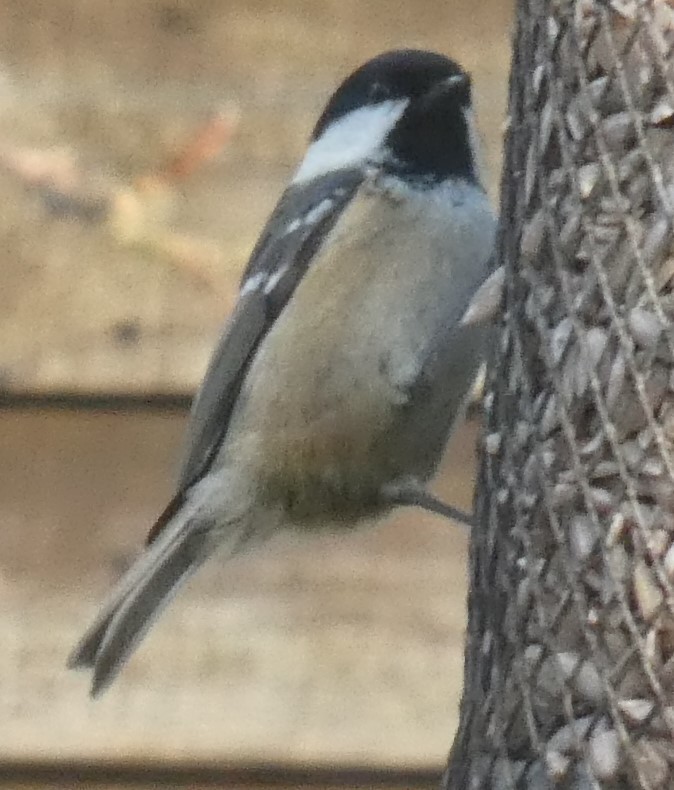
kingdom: Animalia
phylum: Chordata
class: Aves
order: Passeriformes
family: Paridae
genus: Periparus
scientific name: Periparus ater
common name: Coal tit
